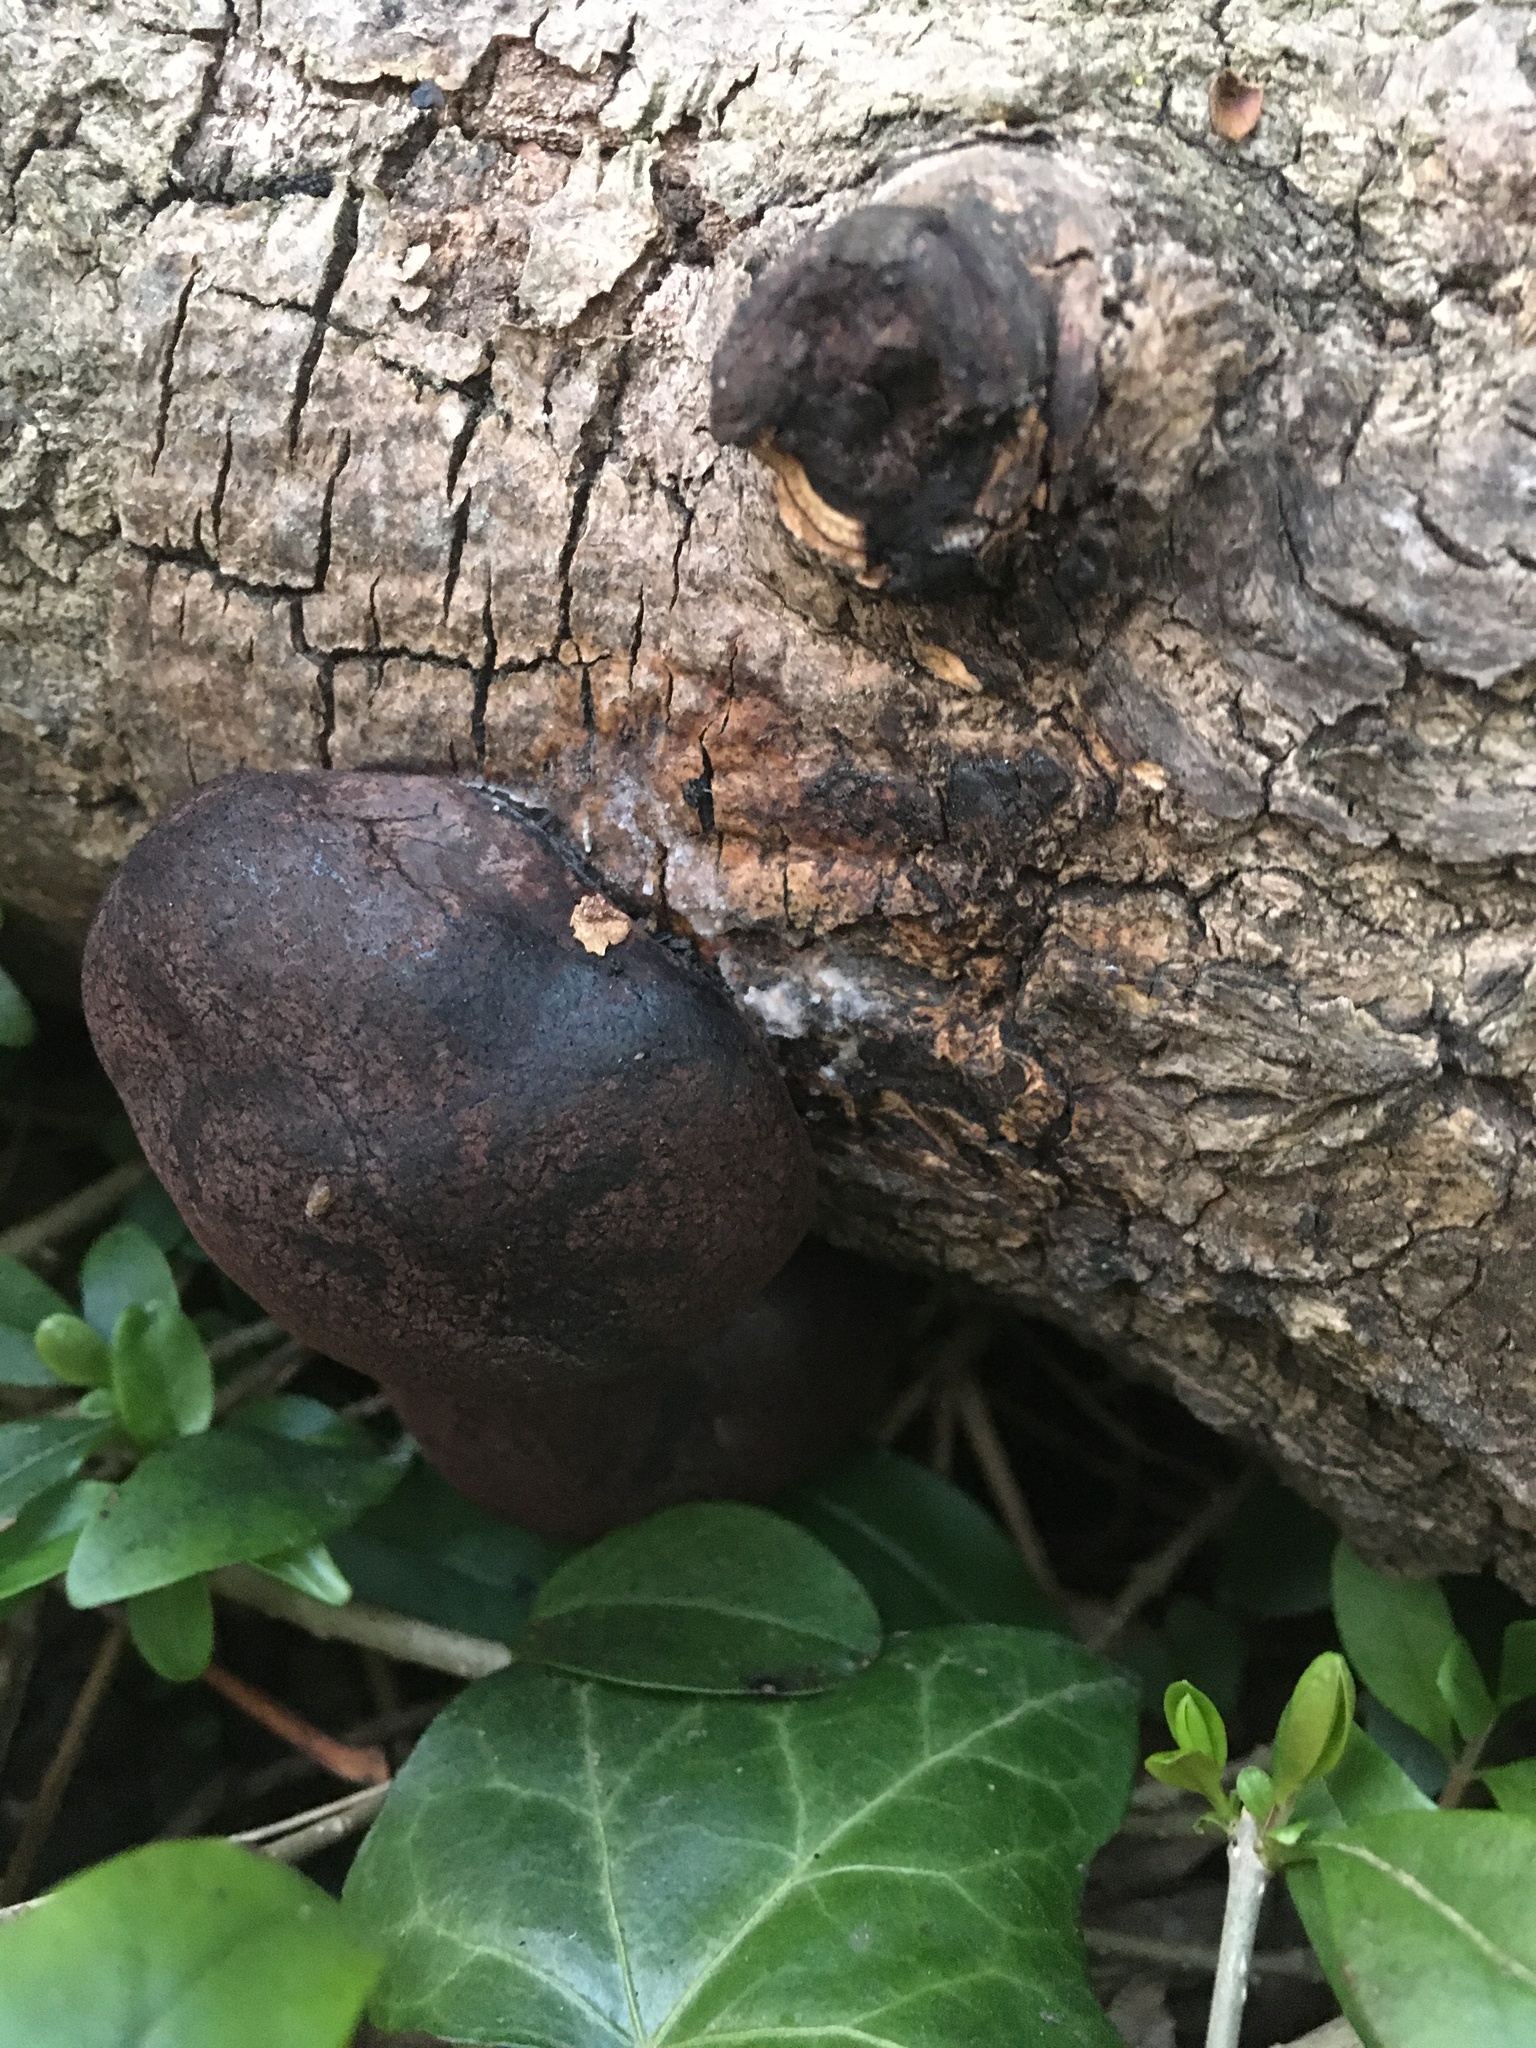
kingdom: Fungi
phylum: Ascomycota
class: Sordariomycetes
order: Xylariales
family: Hypoxylaceae
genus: Daldinia
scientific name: Daldinia concentrica
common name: Cramp balls
